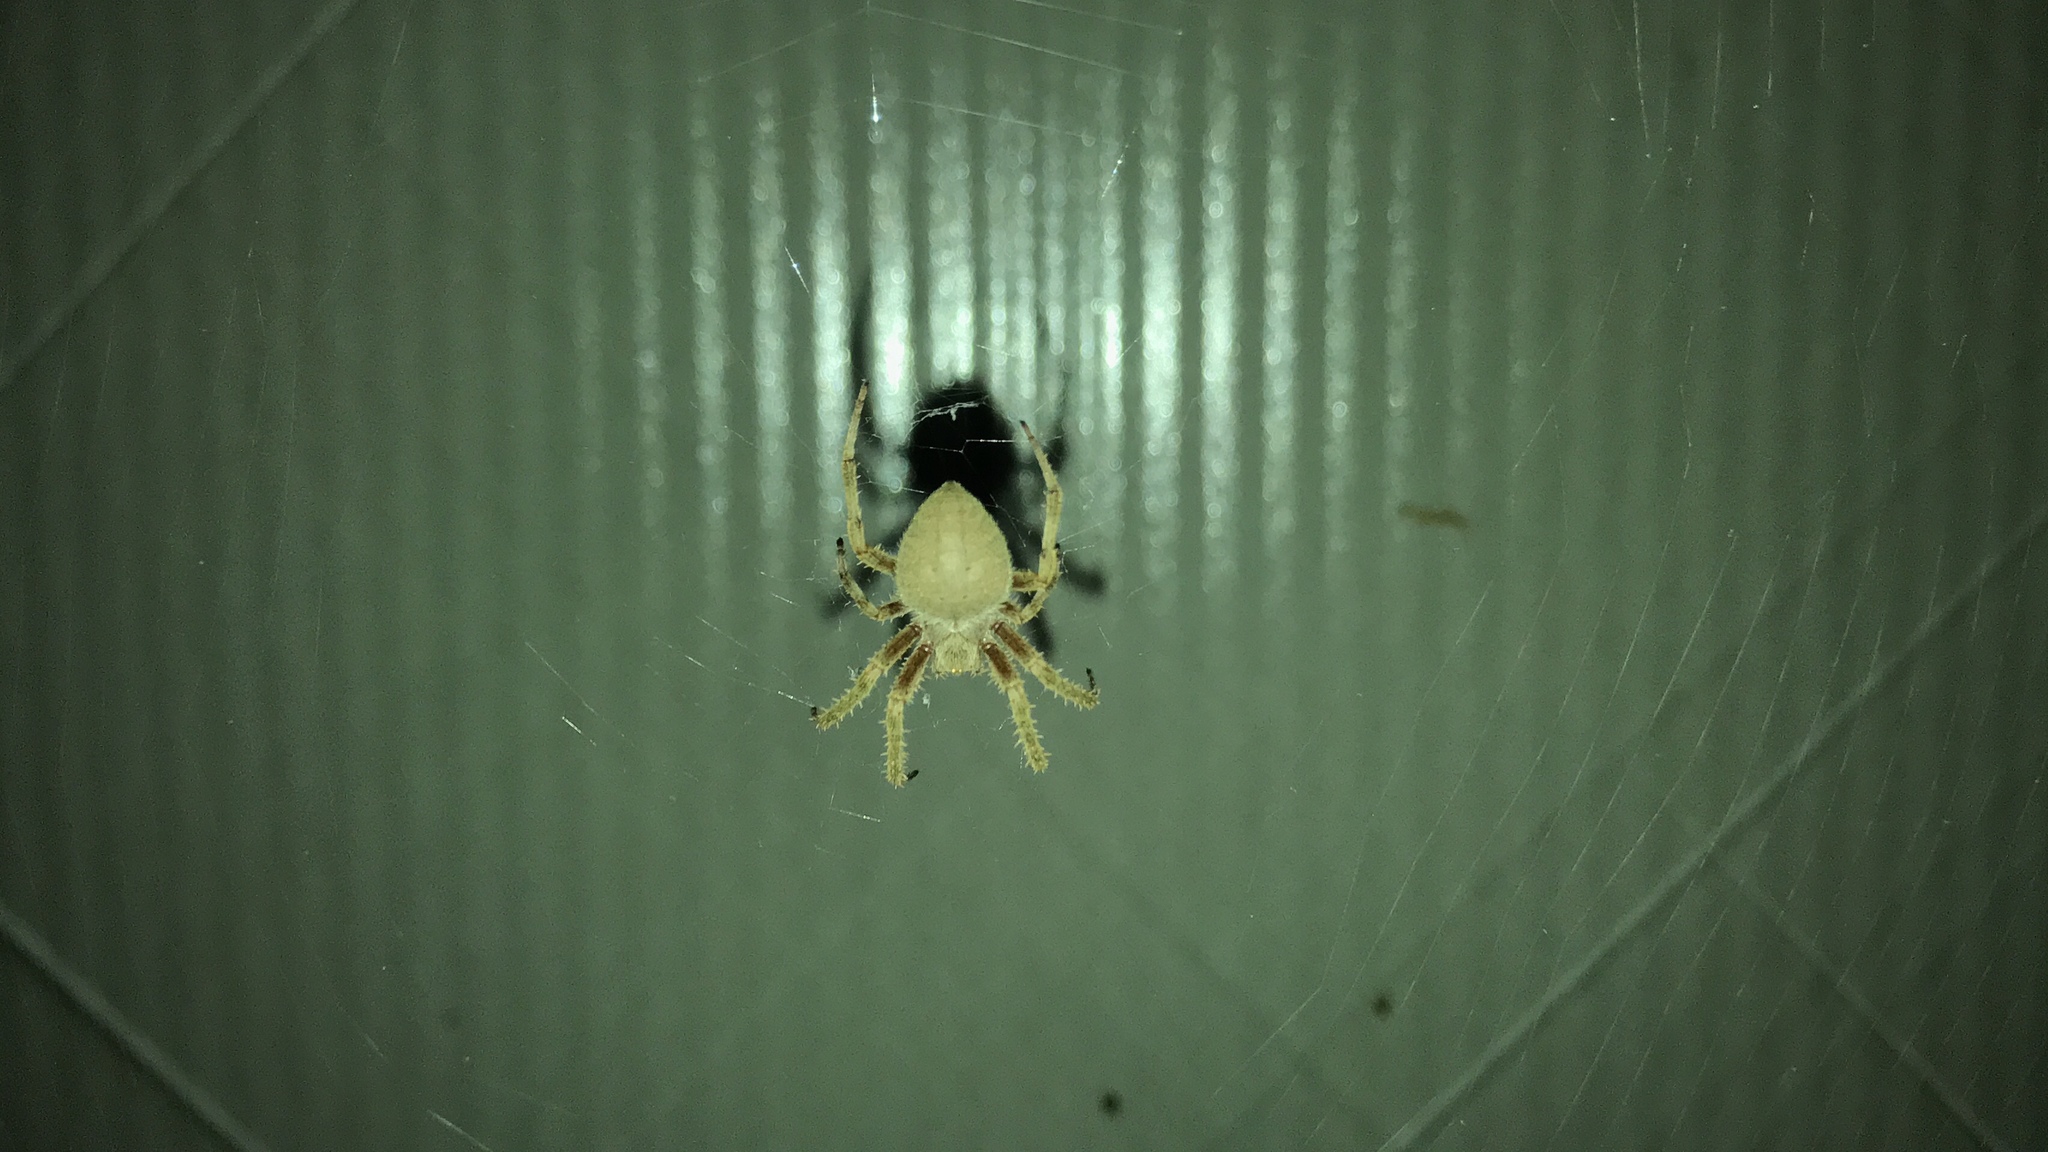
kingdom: Animalia
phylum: Arthropoda
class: Arachnida
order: Araneae
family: Araneidae
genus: Neoscona
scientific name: Neoscona crucifera
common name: Spotted orbweaver
